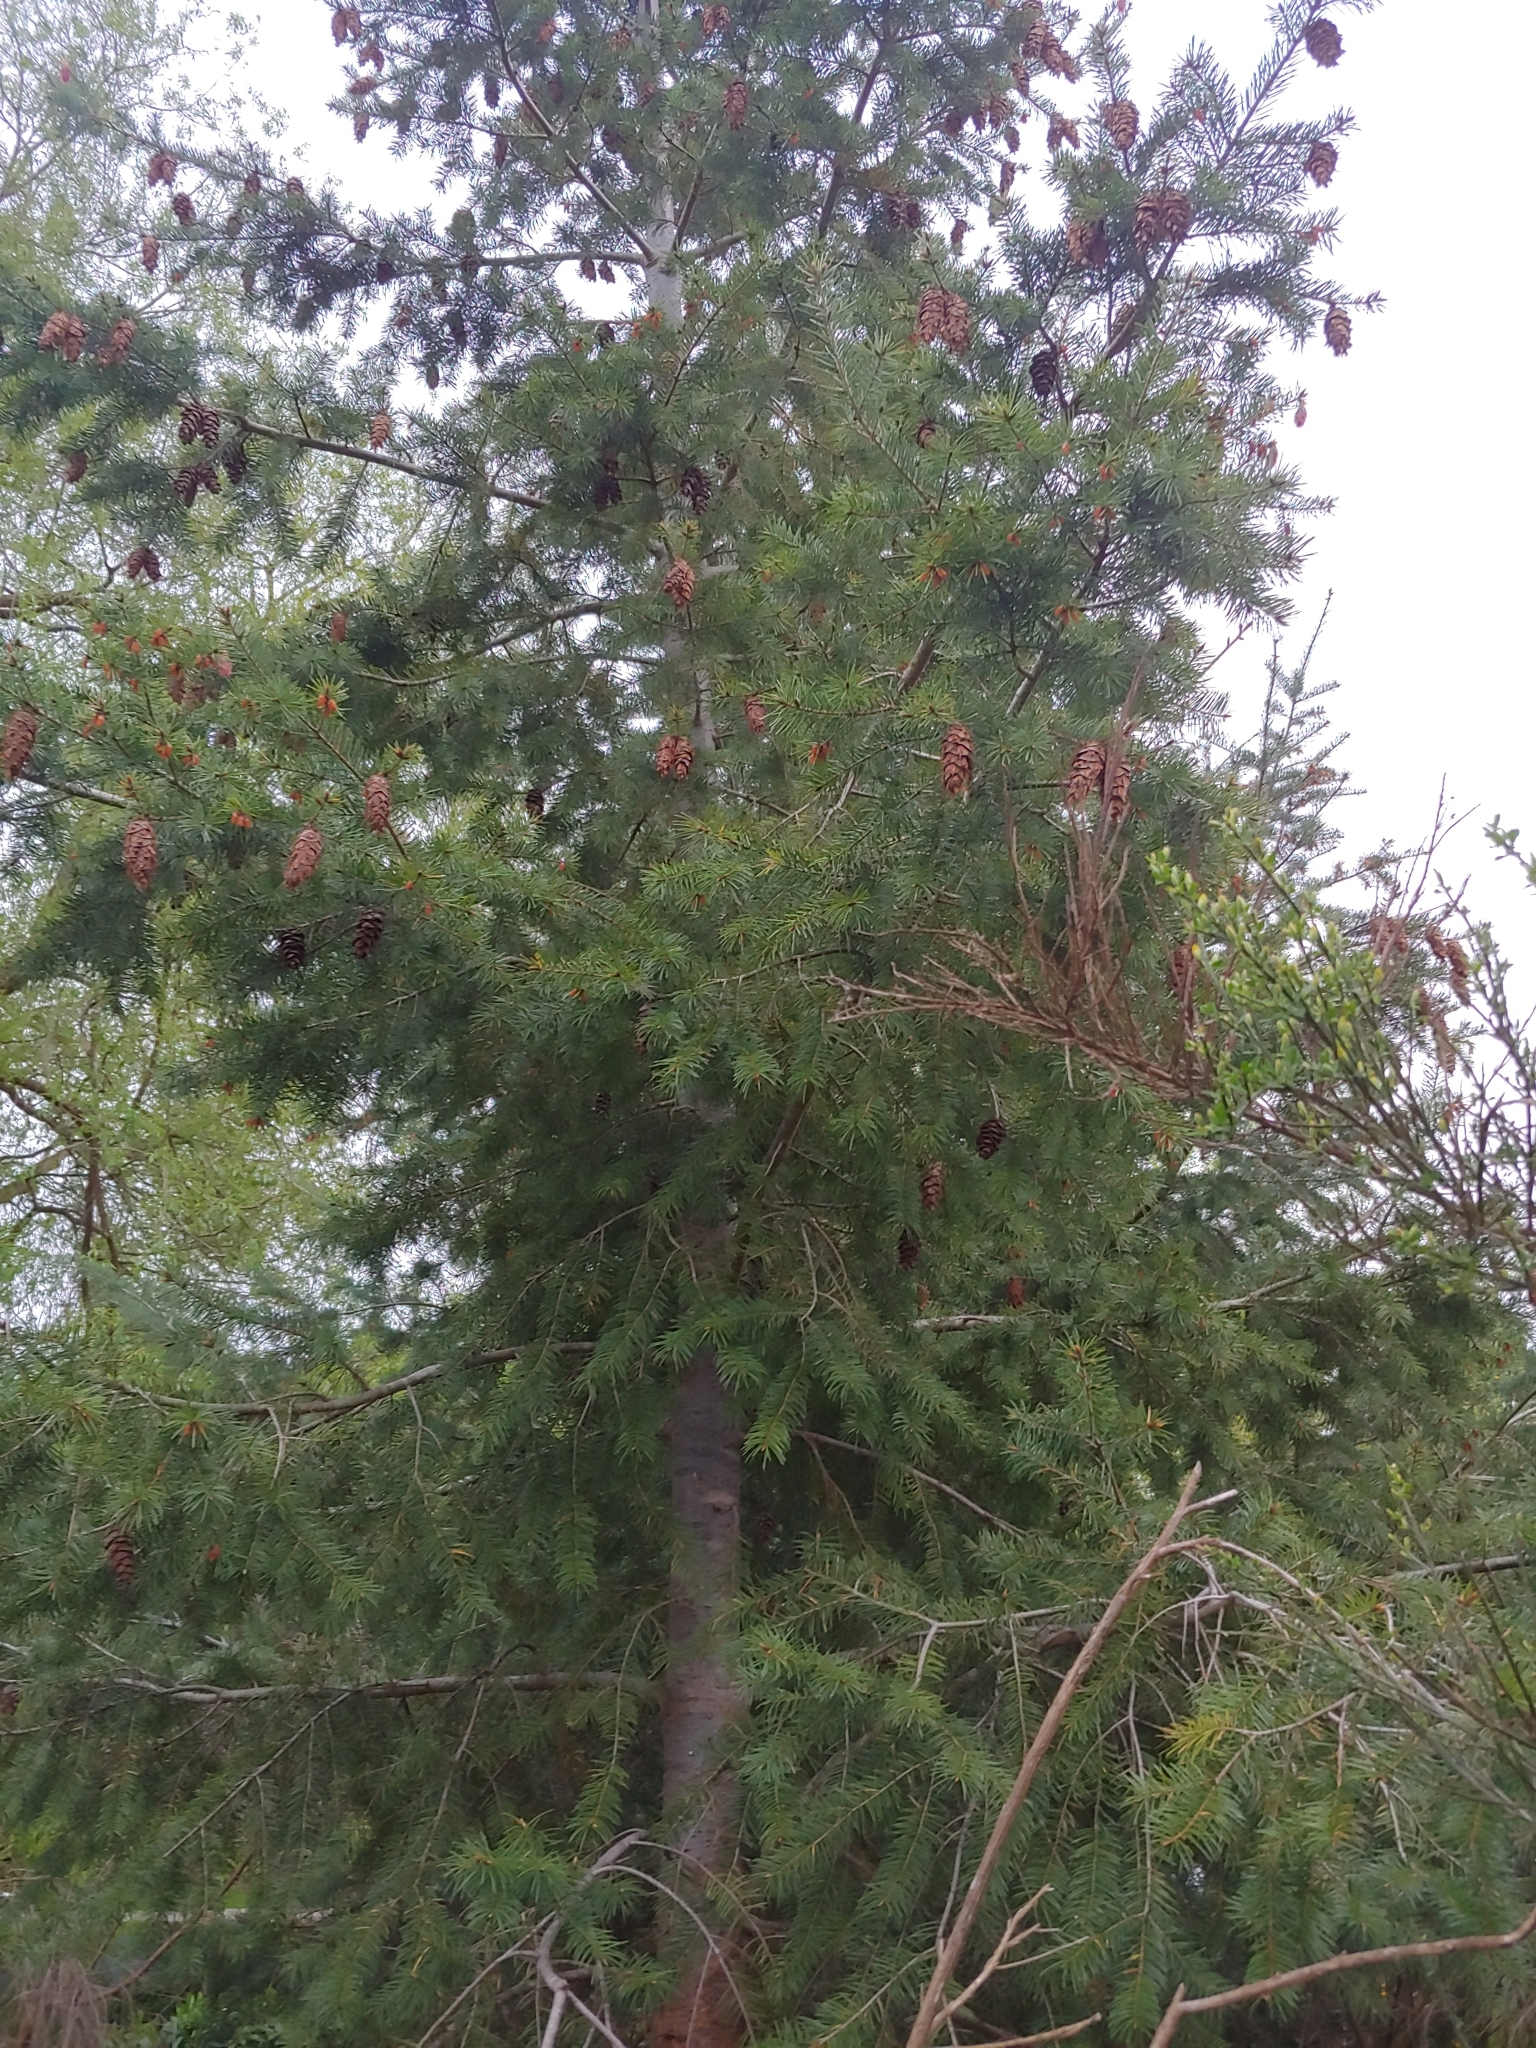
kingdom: Plantae
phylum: Tracheophyta
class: Pinopsida
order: Pinales
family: Pinaceae
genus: Pseudotsuga
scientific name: Pseudotsuga menziesii
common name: Douglas fir
